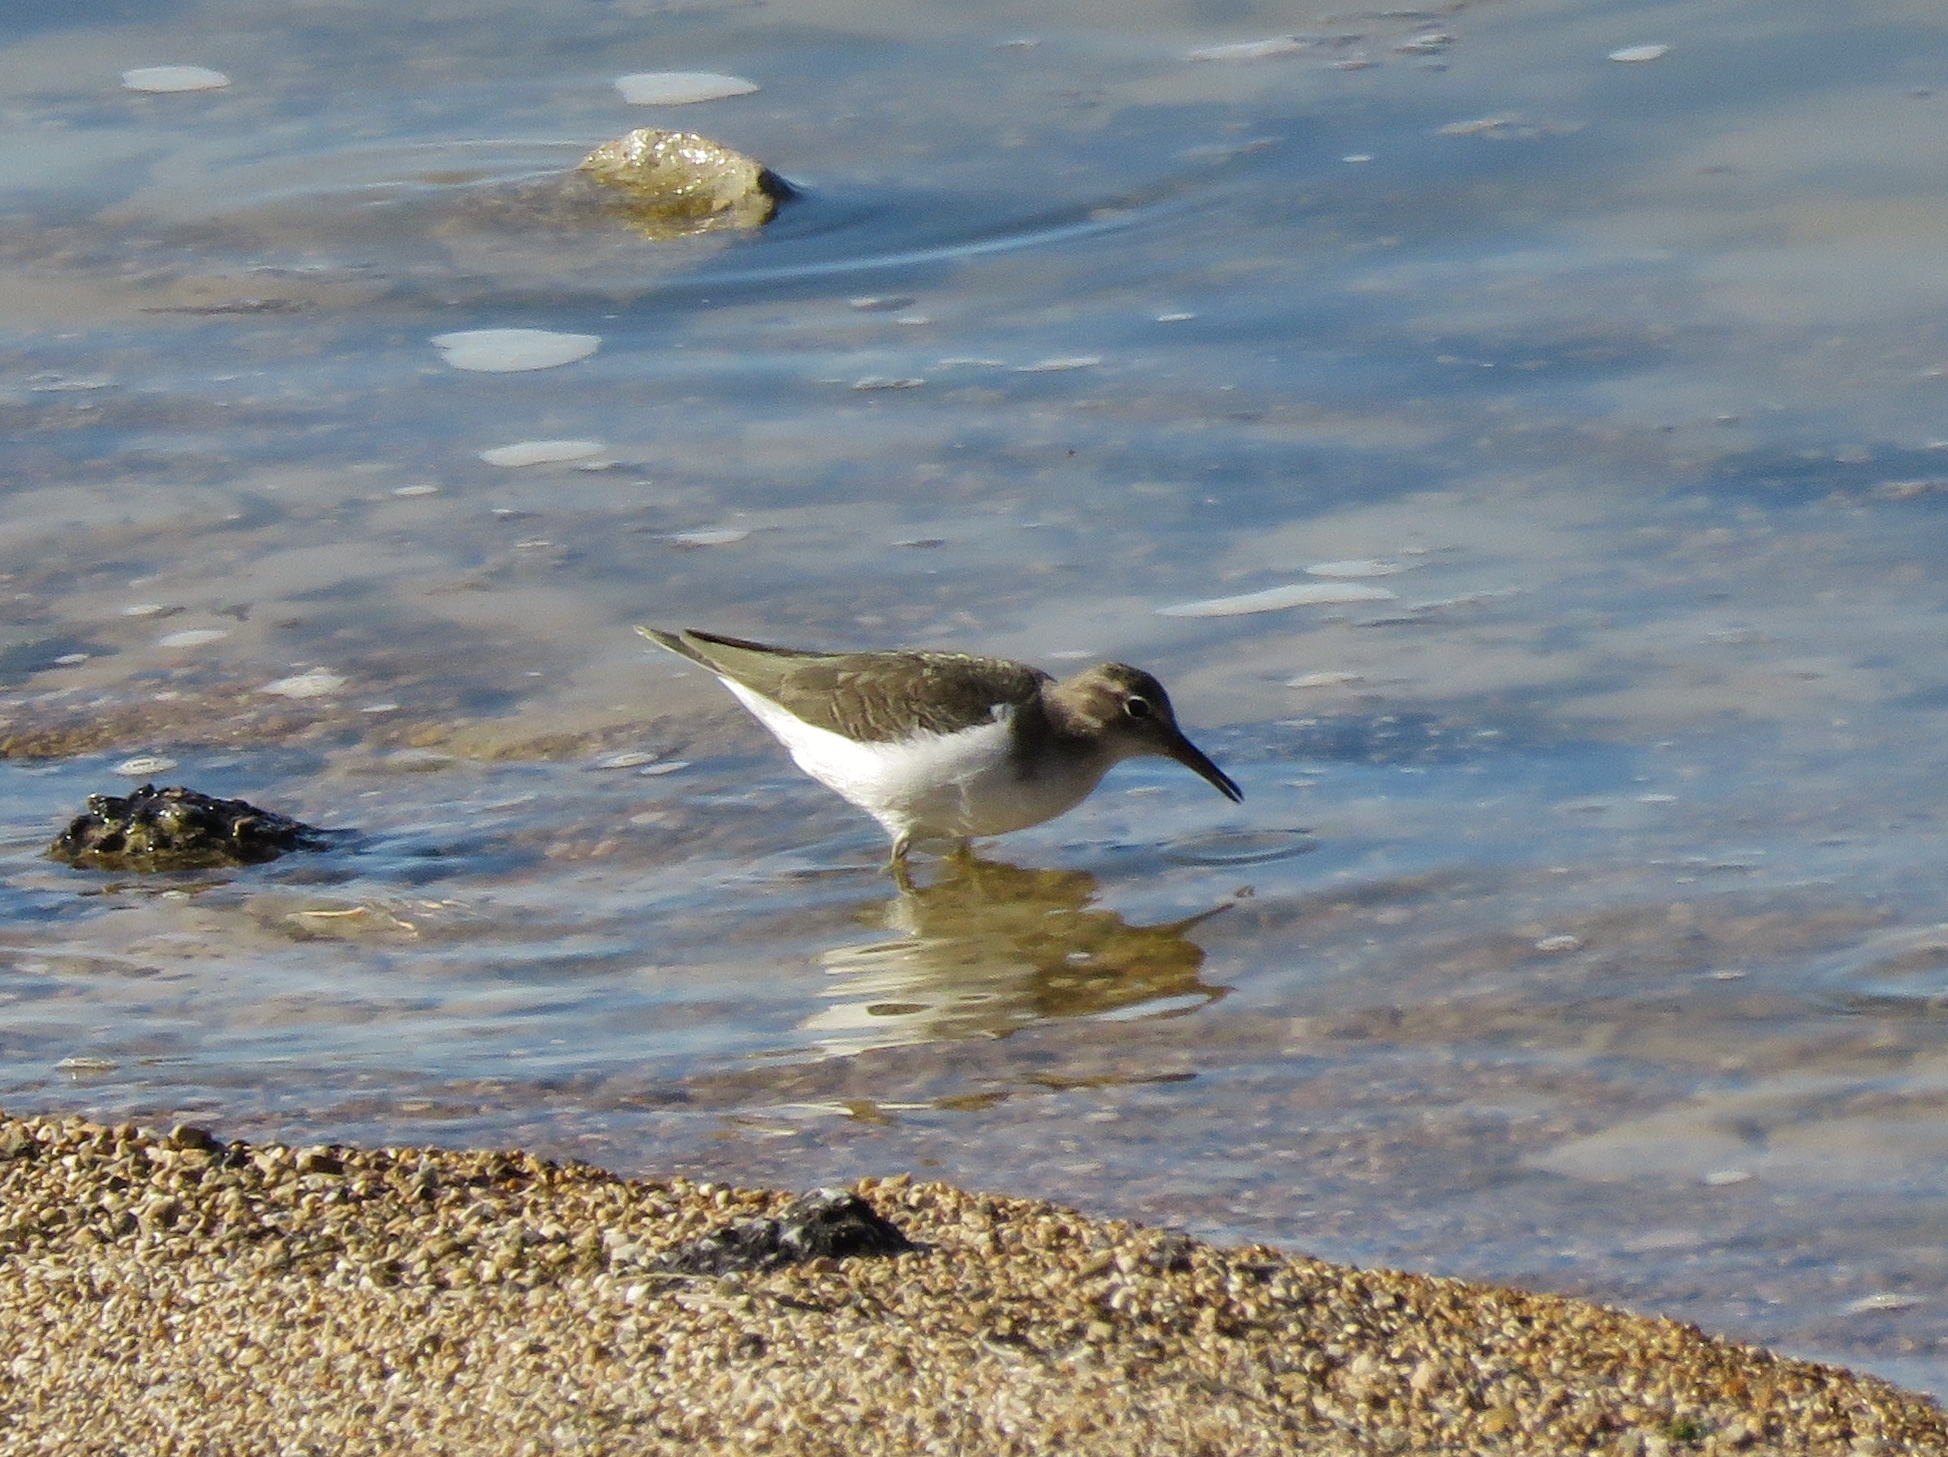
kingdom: Animalia
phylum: Chordata
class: Aves
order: Charadriiformes
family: Scolopacidae
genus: Actitis
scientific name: Actitis macularius
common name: Spotted sandpiper
